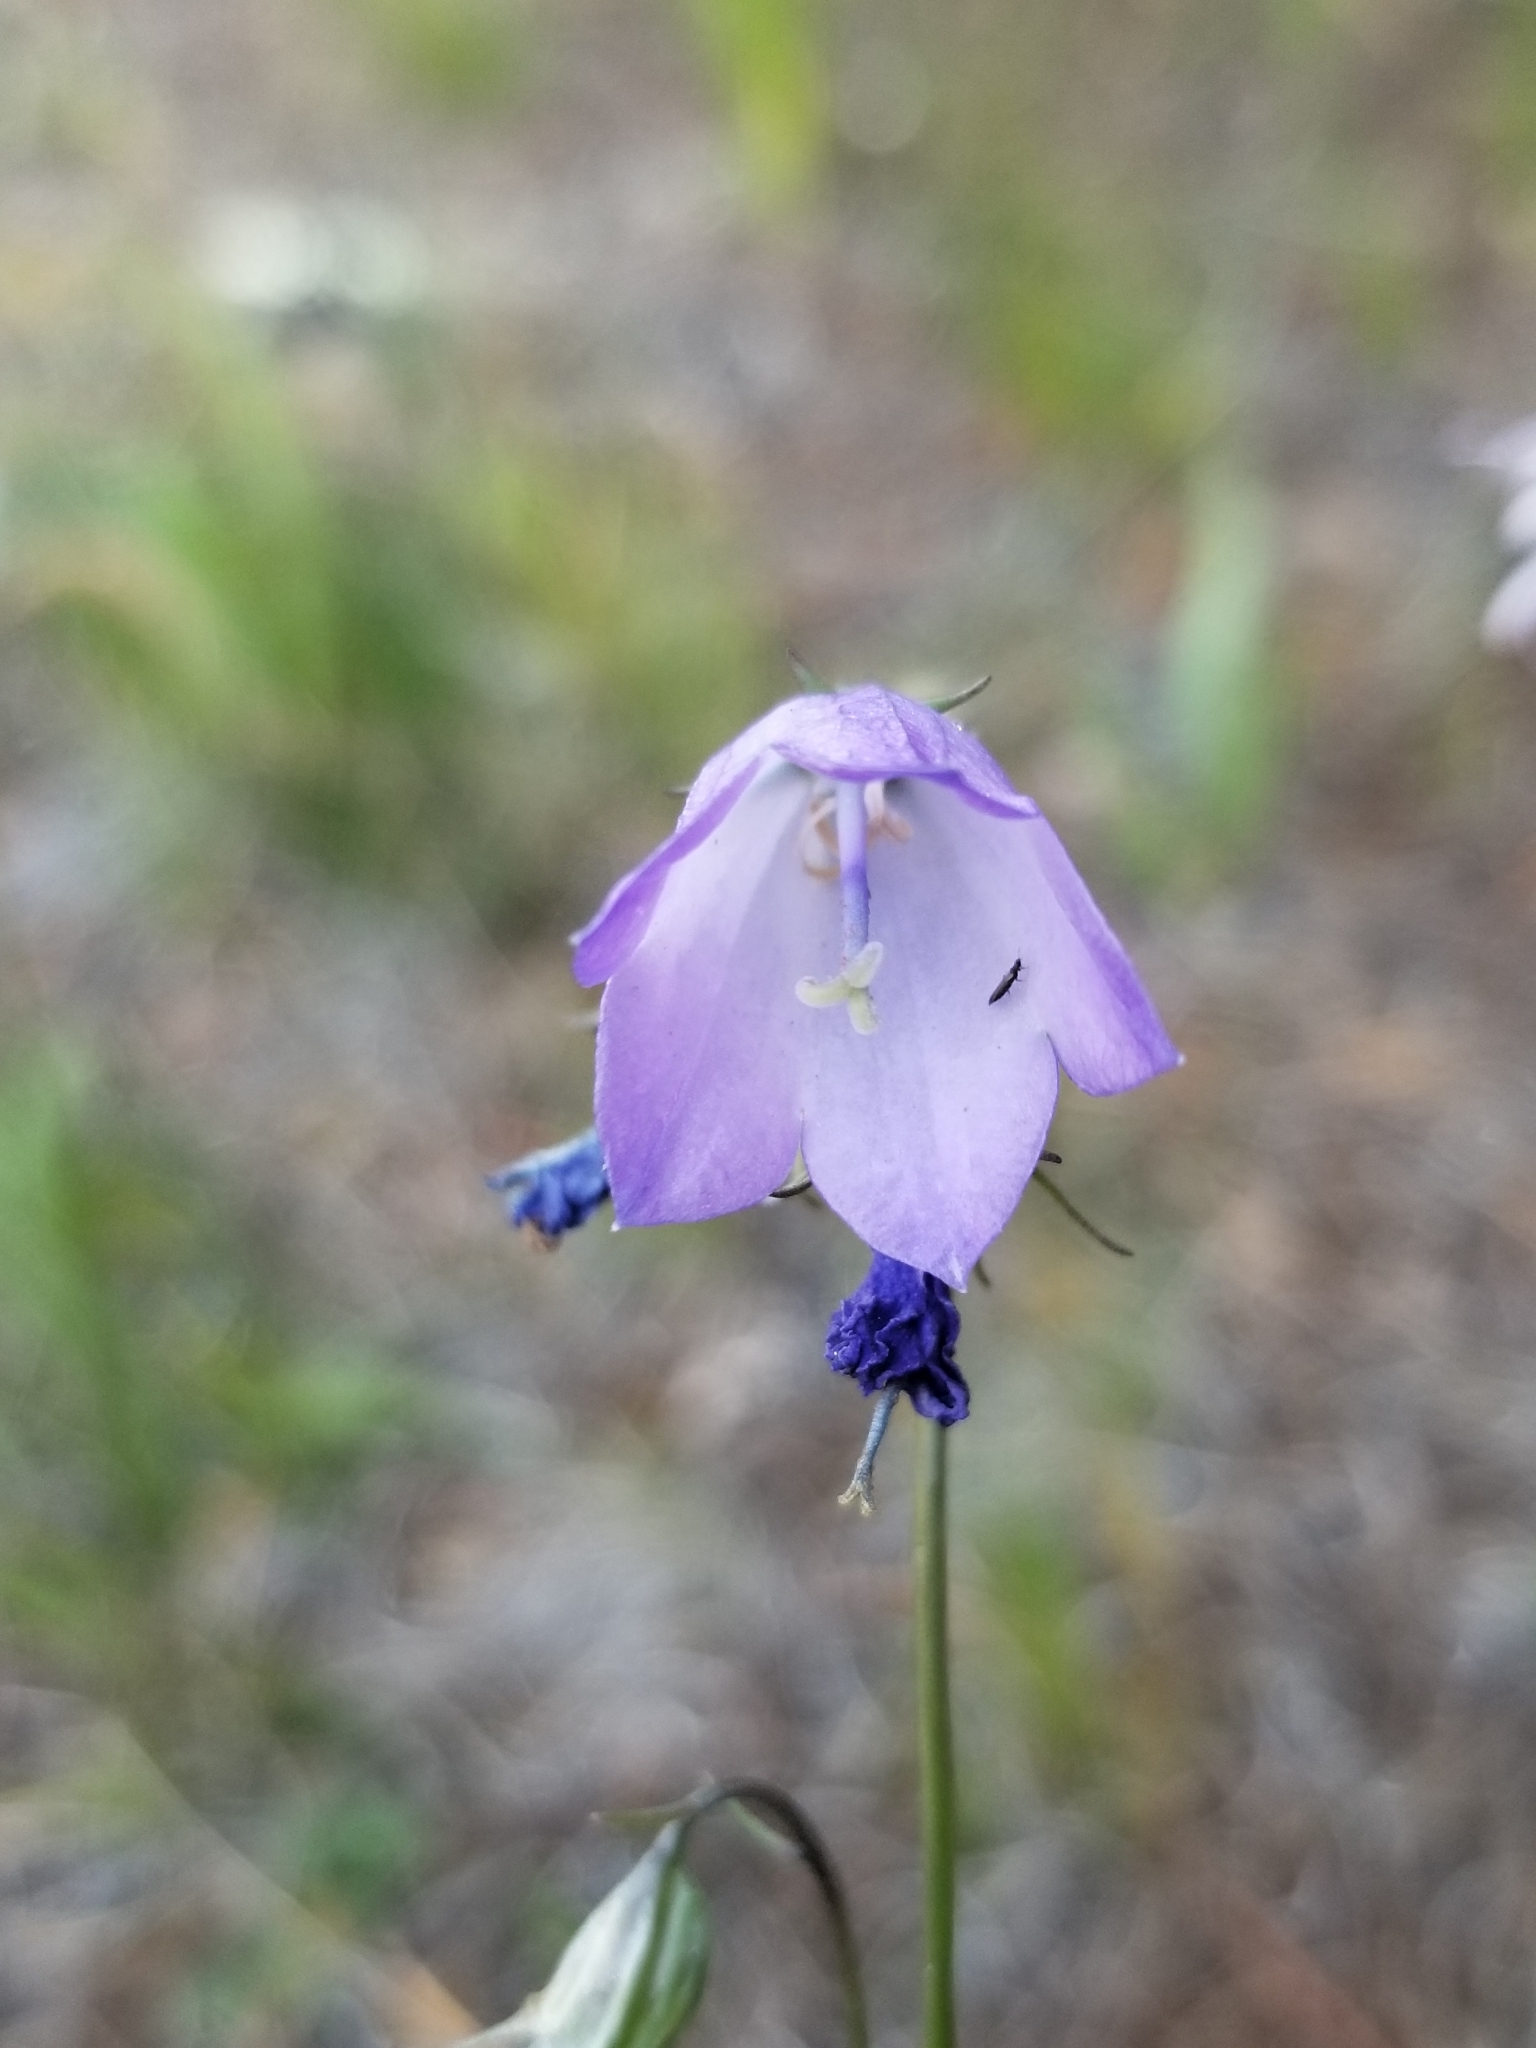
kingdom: Plantae
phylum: Tracheophyta
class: Magnoliopsida
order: Asterales
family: Campanulaceae
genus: Campanula
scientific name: Campanula petiolata
